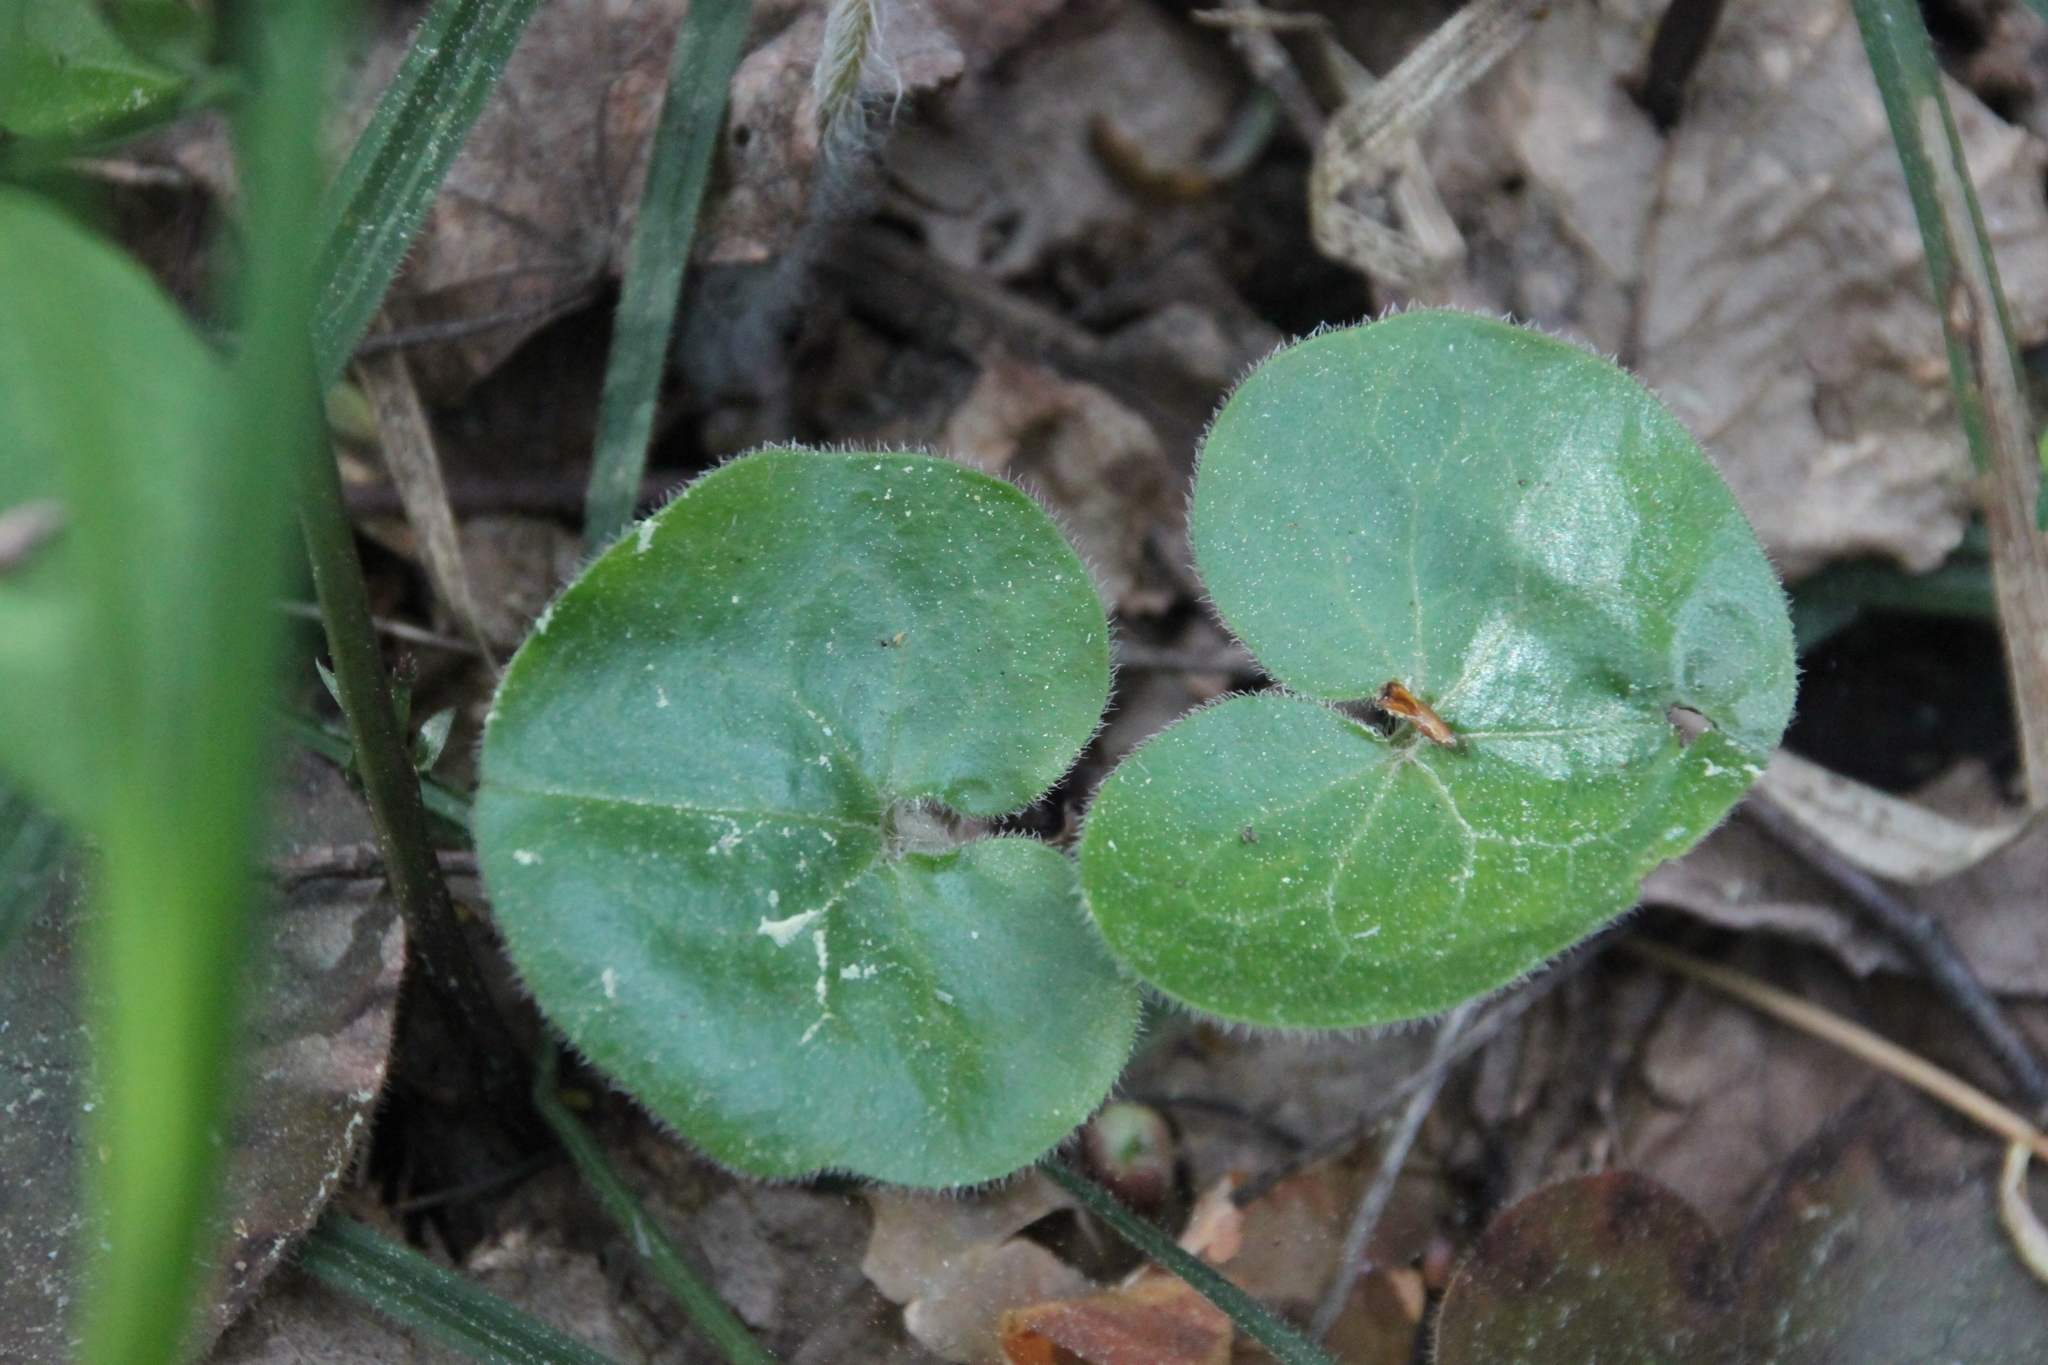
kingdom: Plantae
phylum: Tracheophyta
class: Magnoliopsida
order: Piperales
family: Aristolochiaceae
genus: Asarum
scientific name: Asarum europaeum
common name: Asarabacca
